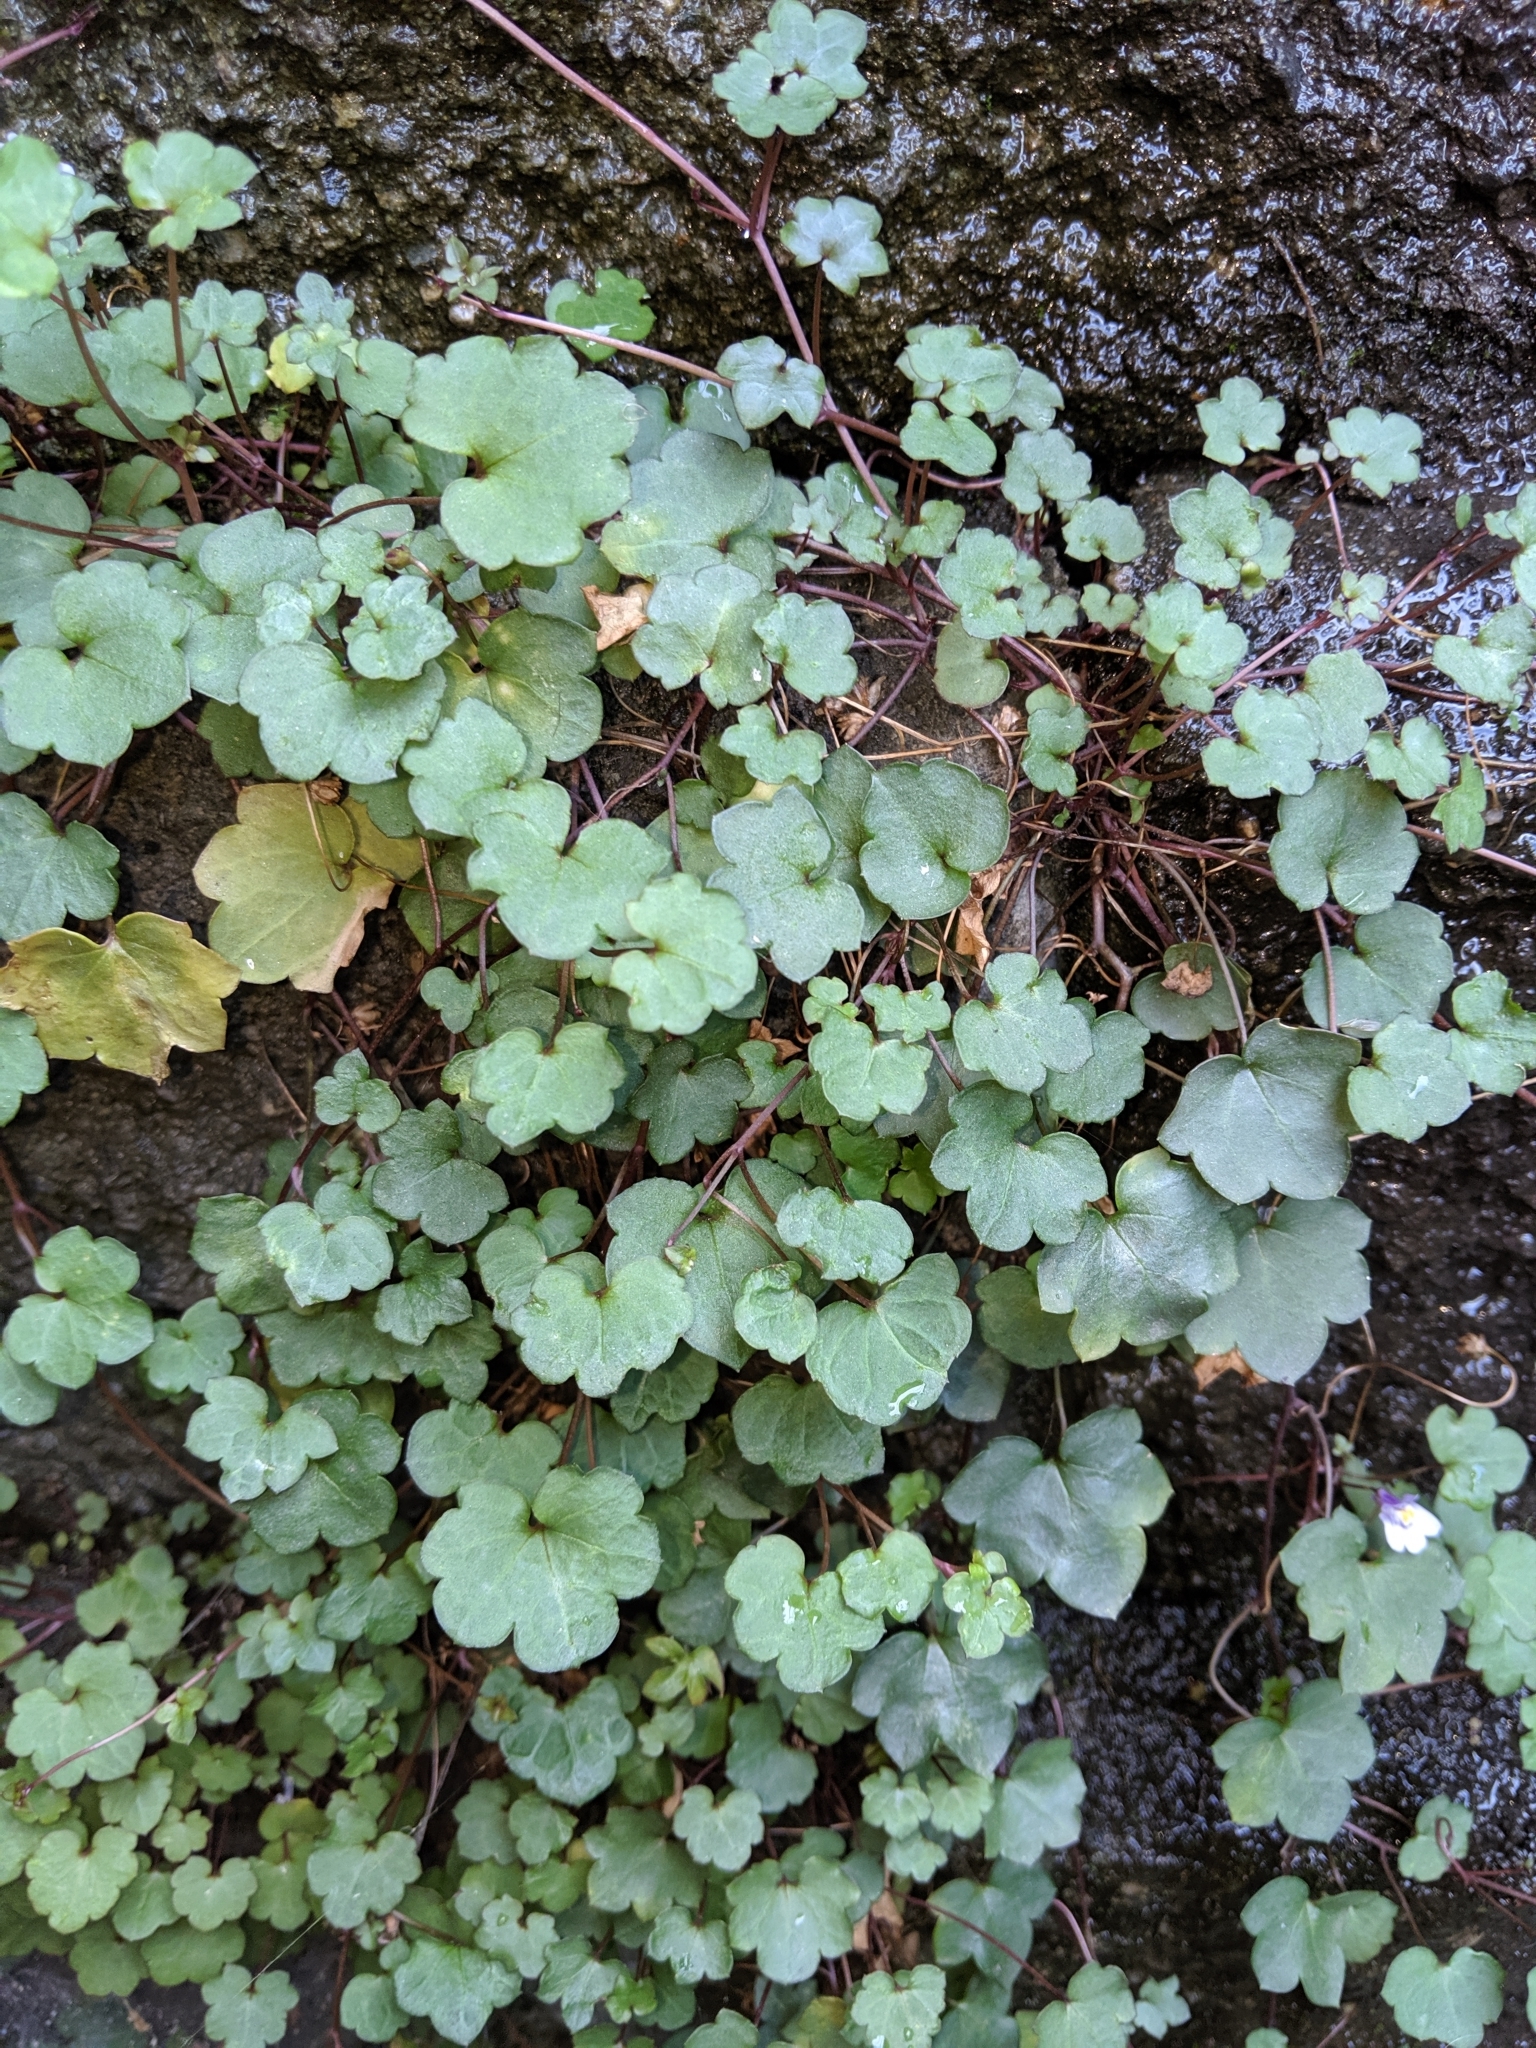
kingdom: Plantae
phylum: Tracheophyta
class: Magnoliopsida
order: Lamiales
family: Plantaginaceae
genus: Cymbalaria
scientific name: Cymbalaria muralis
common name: Ivy-leaved toadflax
